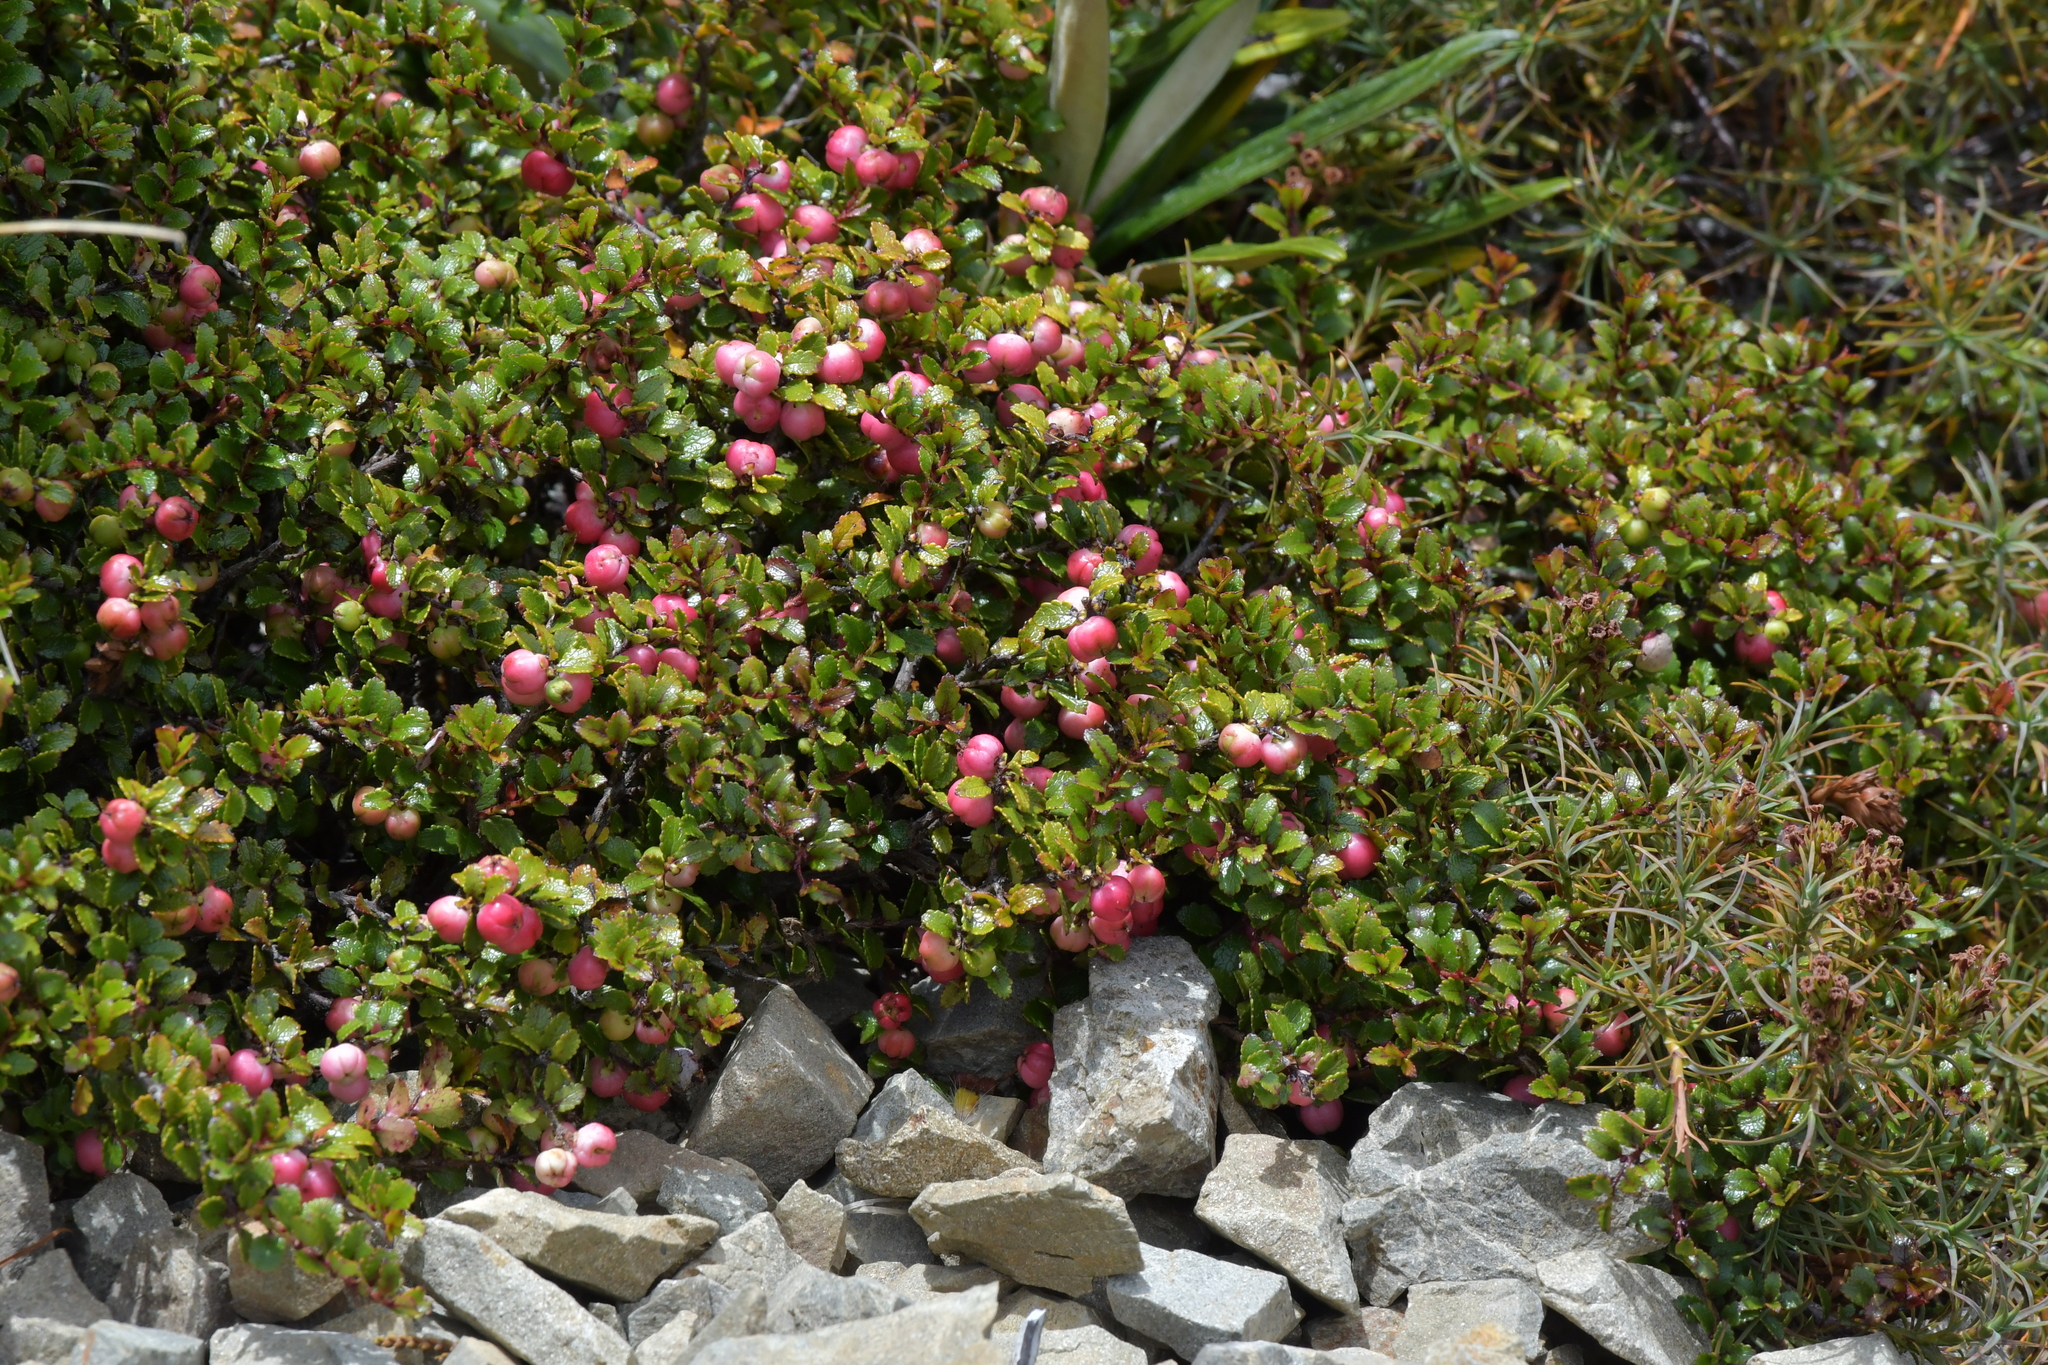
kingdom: Plantae
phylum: Tracheophyta
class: Magnoliopsida
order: Ericales
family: Ericaceae
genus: Gaultheria
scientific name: Gaultheria depressa
